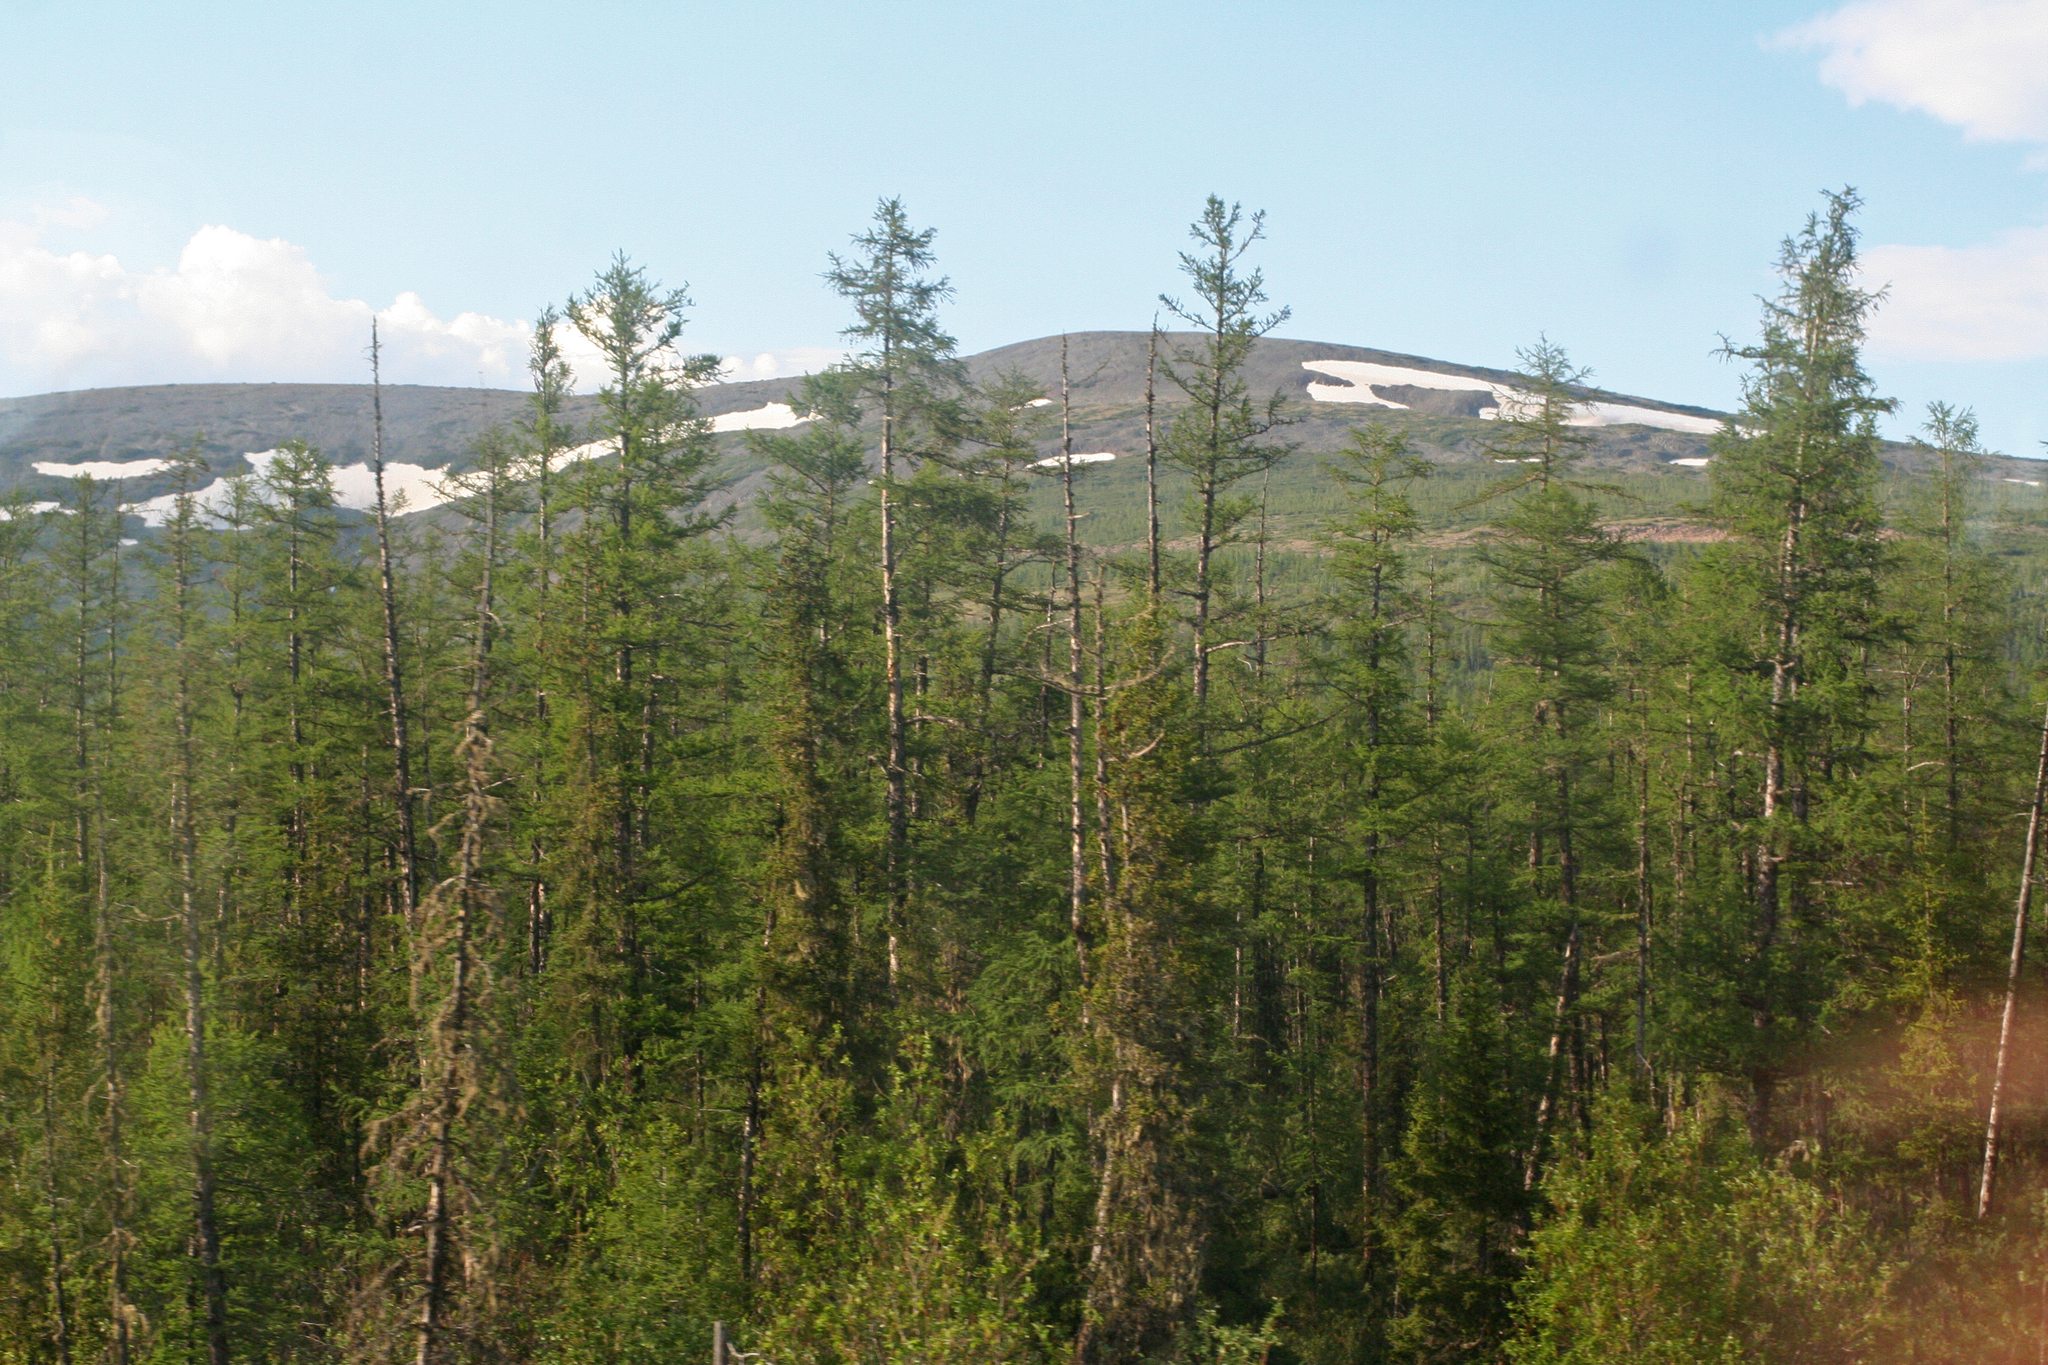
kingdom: Plantae
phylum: Tracheophyta
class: Pinopsida
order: Pinales
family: Pinaceae
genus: Larix
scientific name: Larix gmelinii
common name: Dahurian larch
